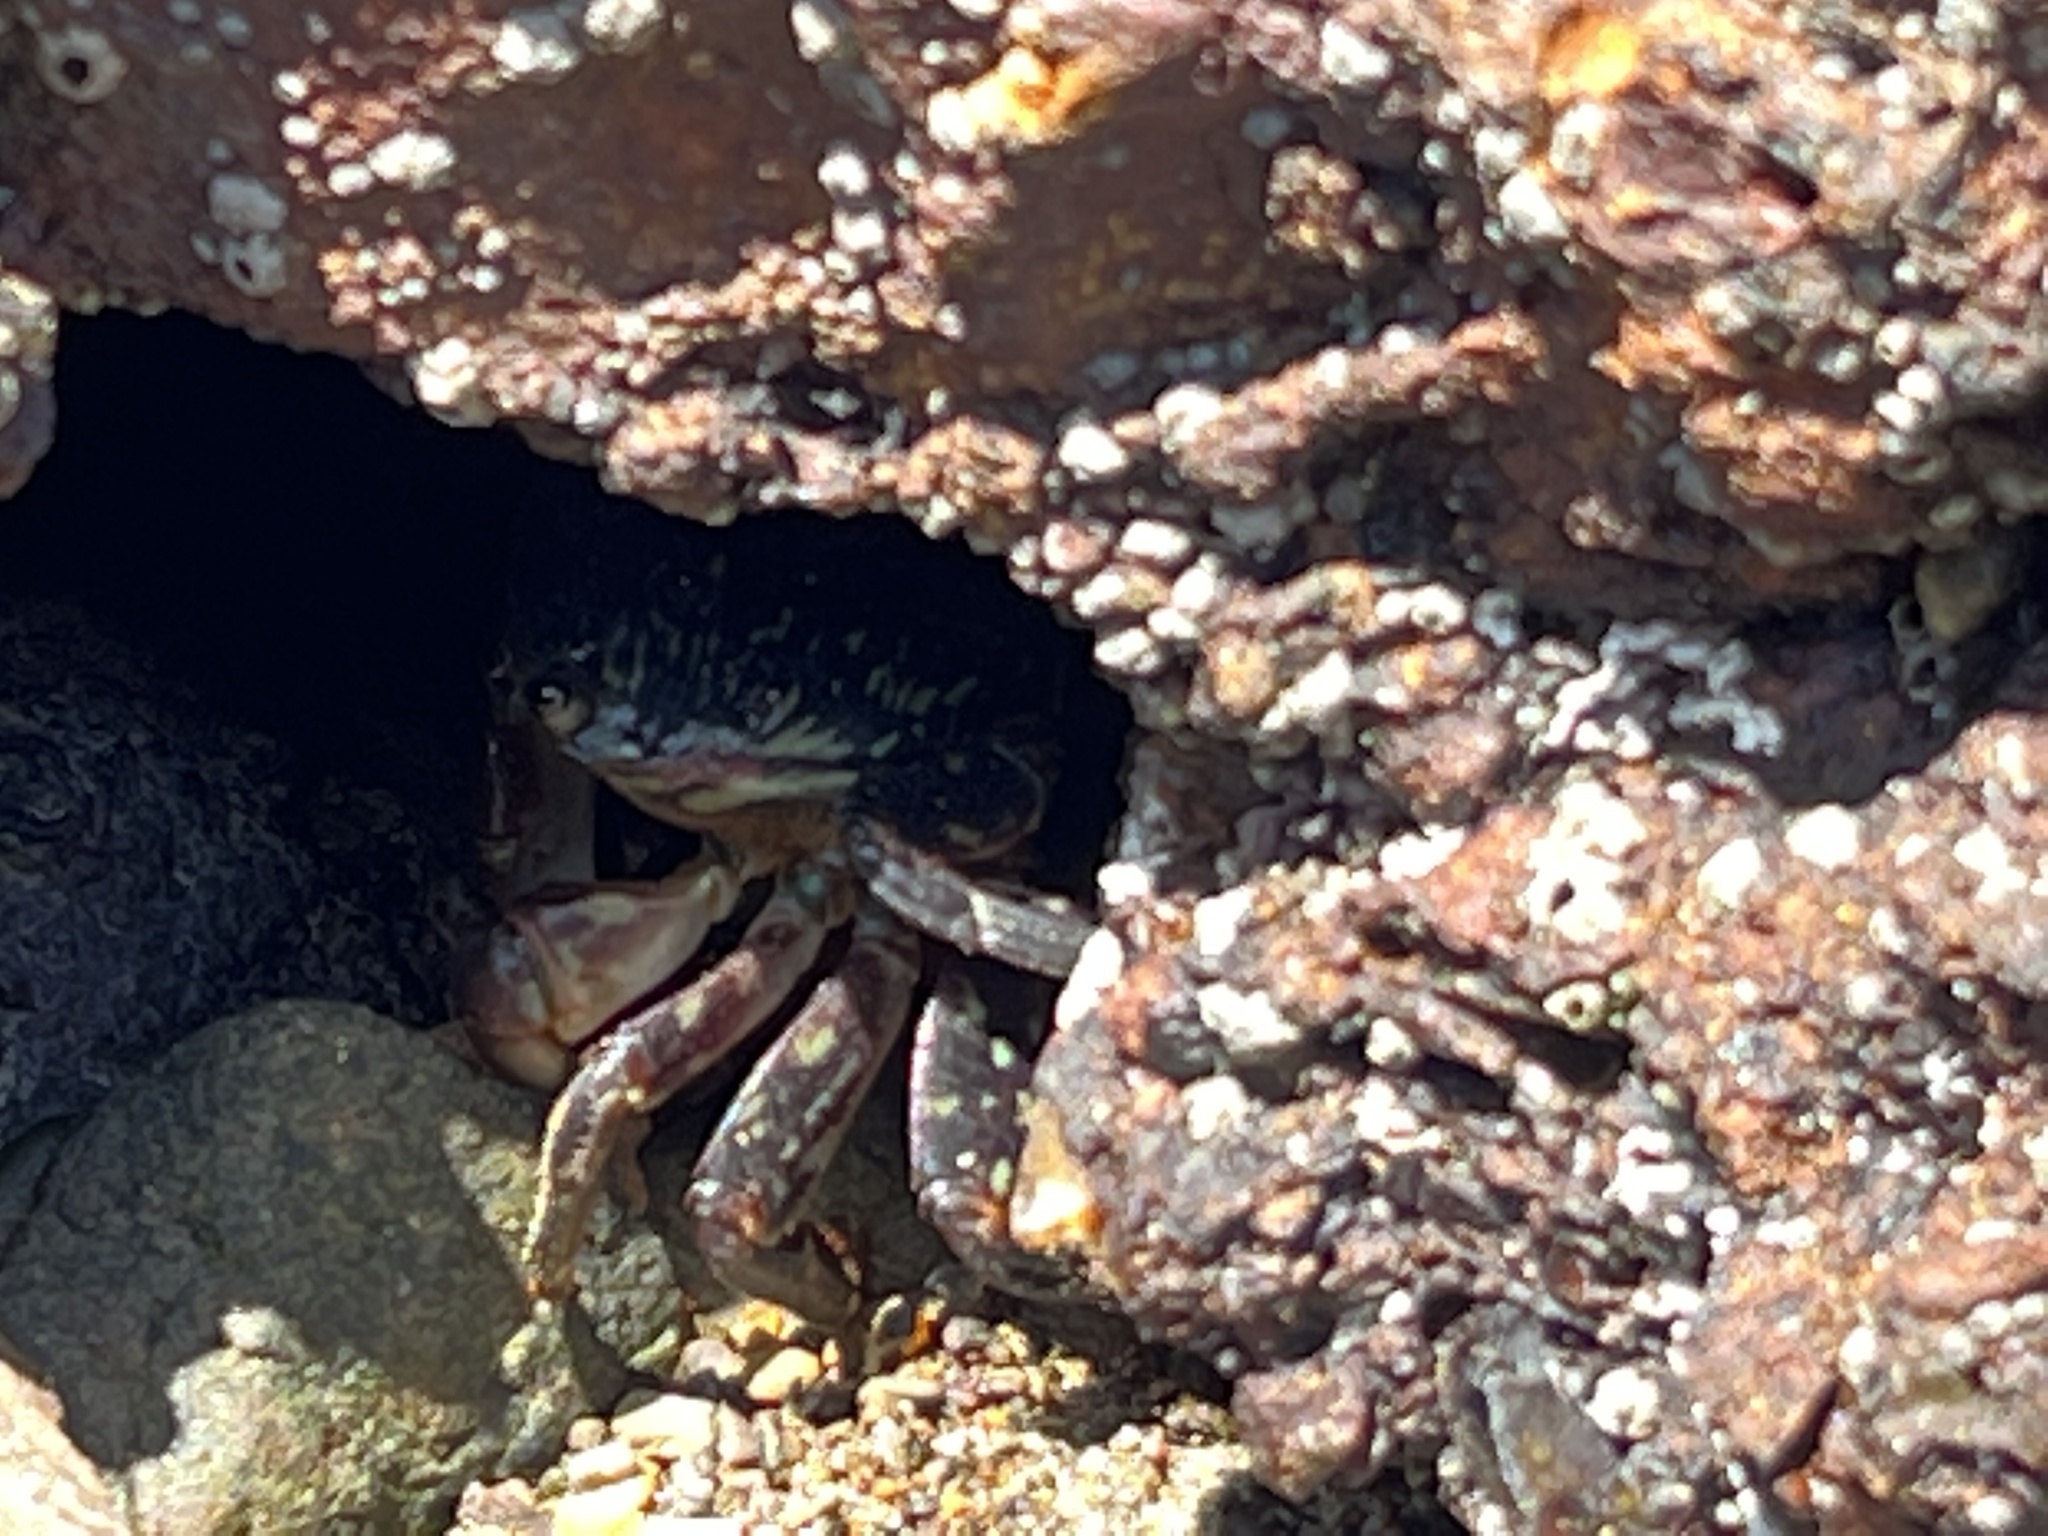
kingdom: Animalia
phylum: Arthropoda
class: Malacostraca
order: Decapoda
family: Grapsidae
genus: Pachygrapsus
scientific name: Pachygrapsus crassipes
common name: Striped shore crab
